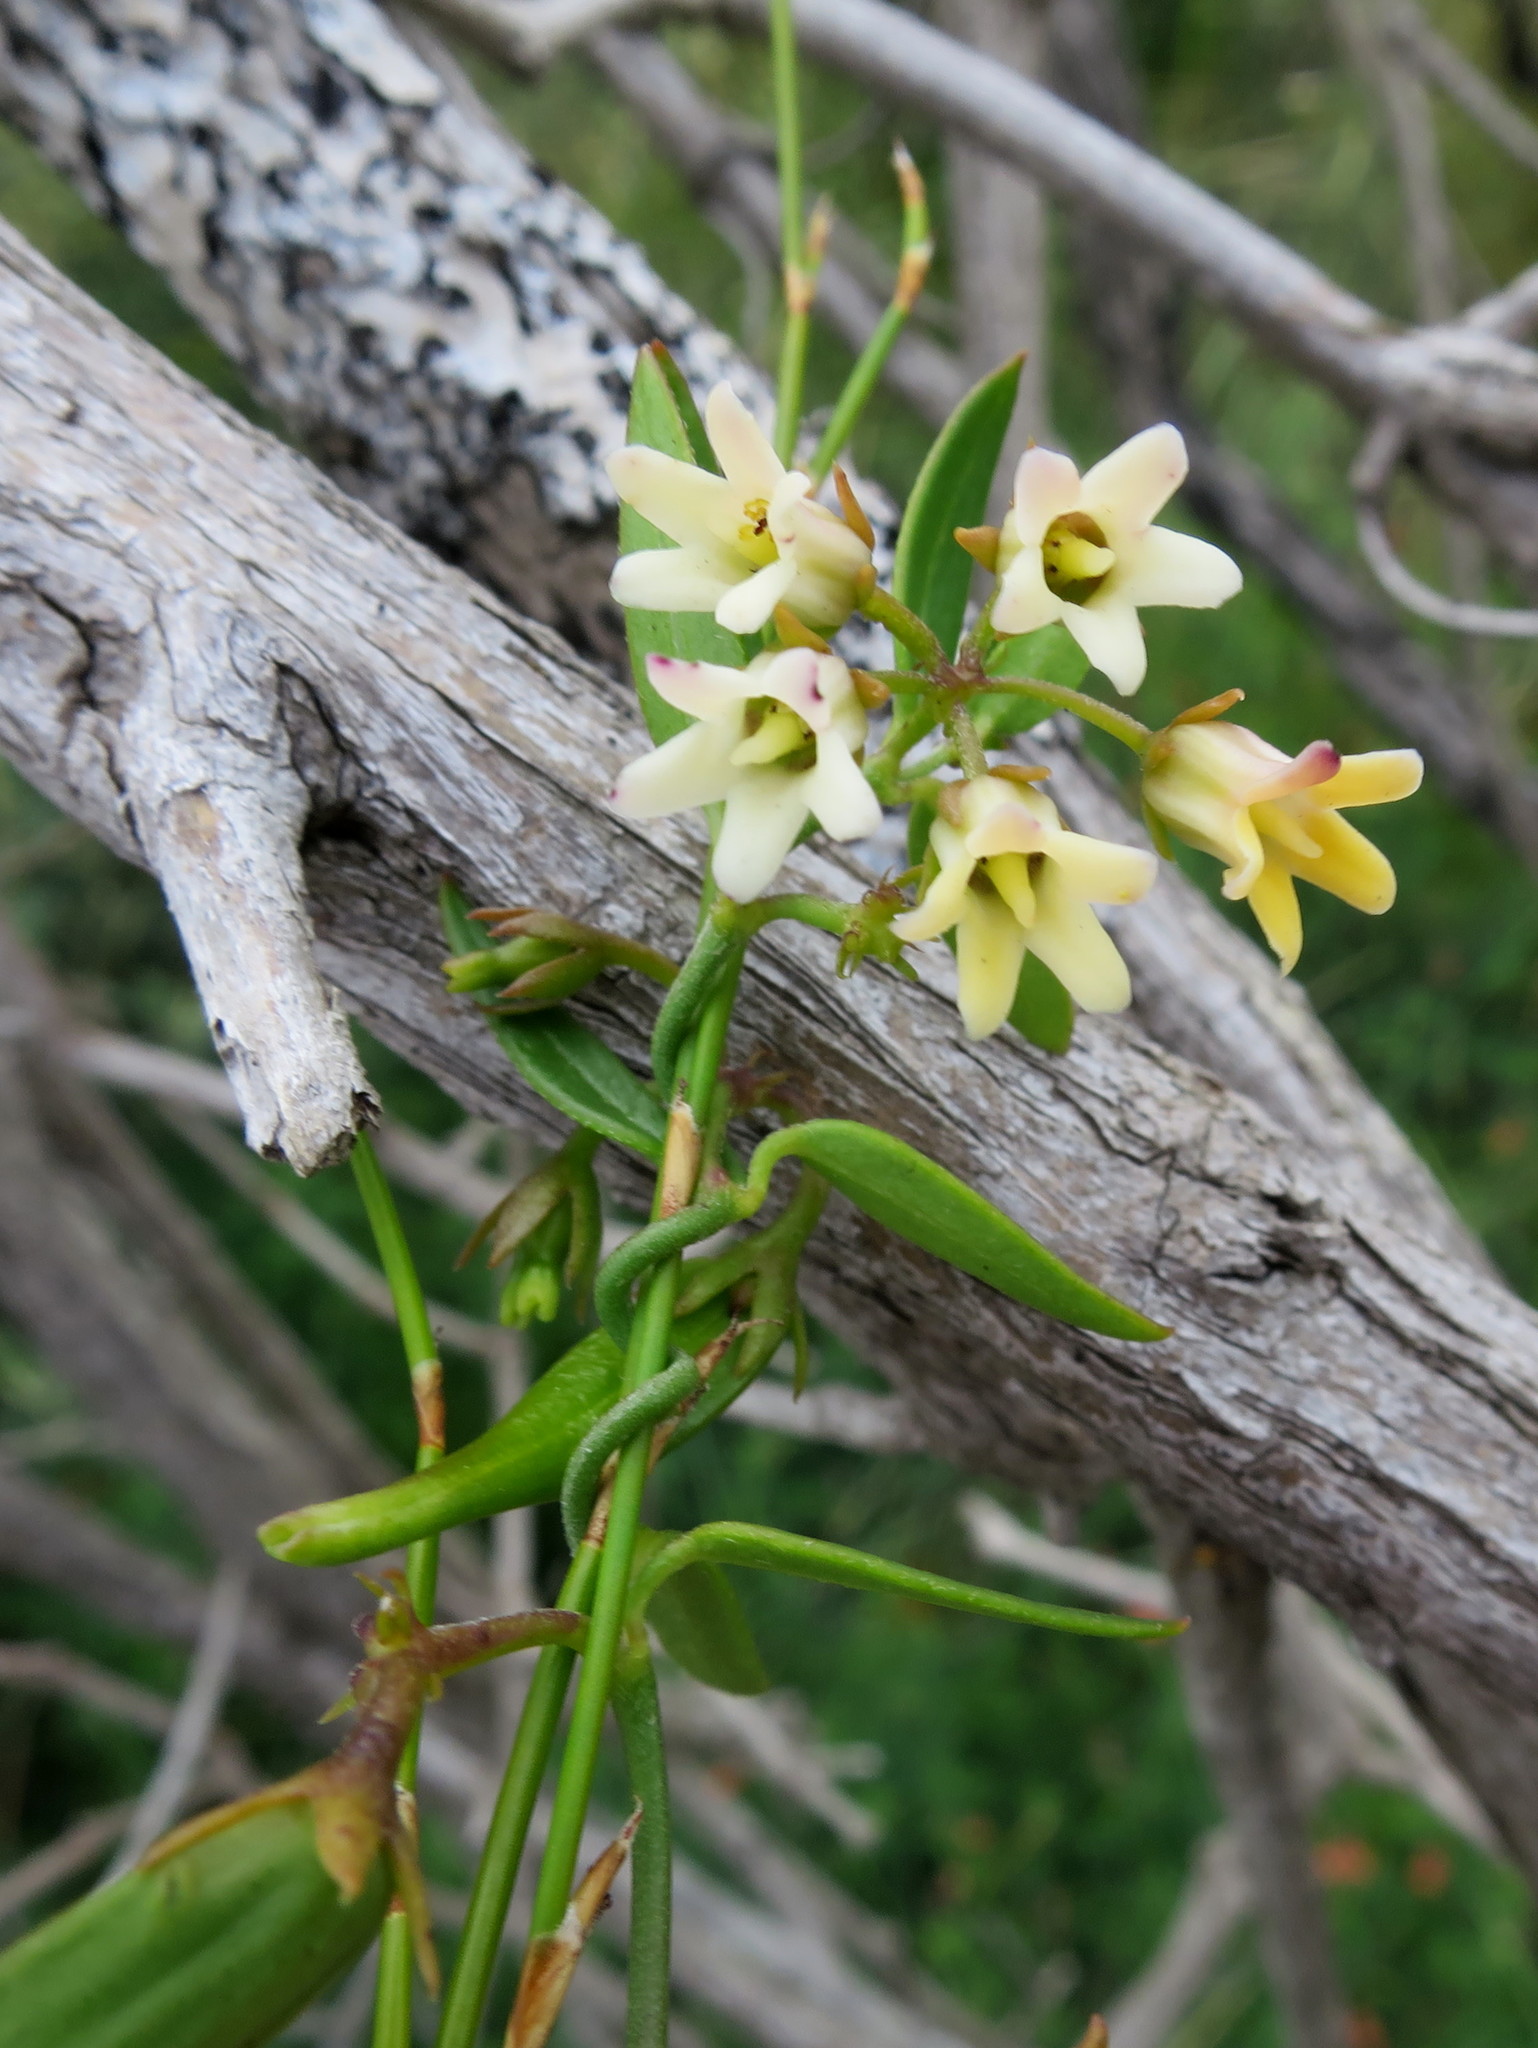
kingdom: Plantae
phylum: Tracheophyta
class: Magnoliopsida
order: Gentianales
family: Apocynaceae
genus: Astephanus
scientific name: Astephanus triflorus
